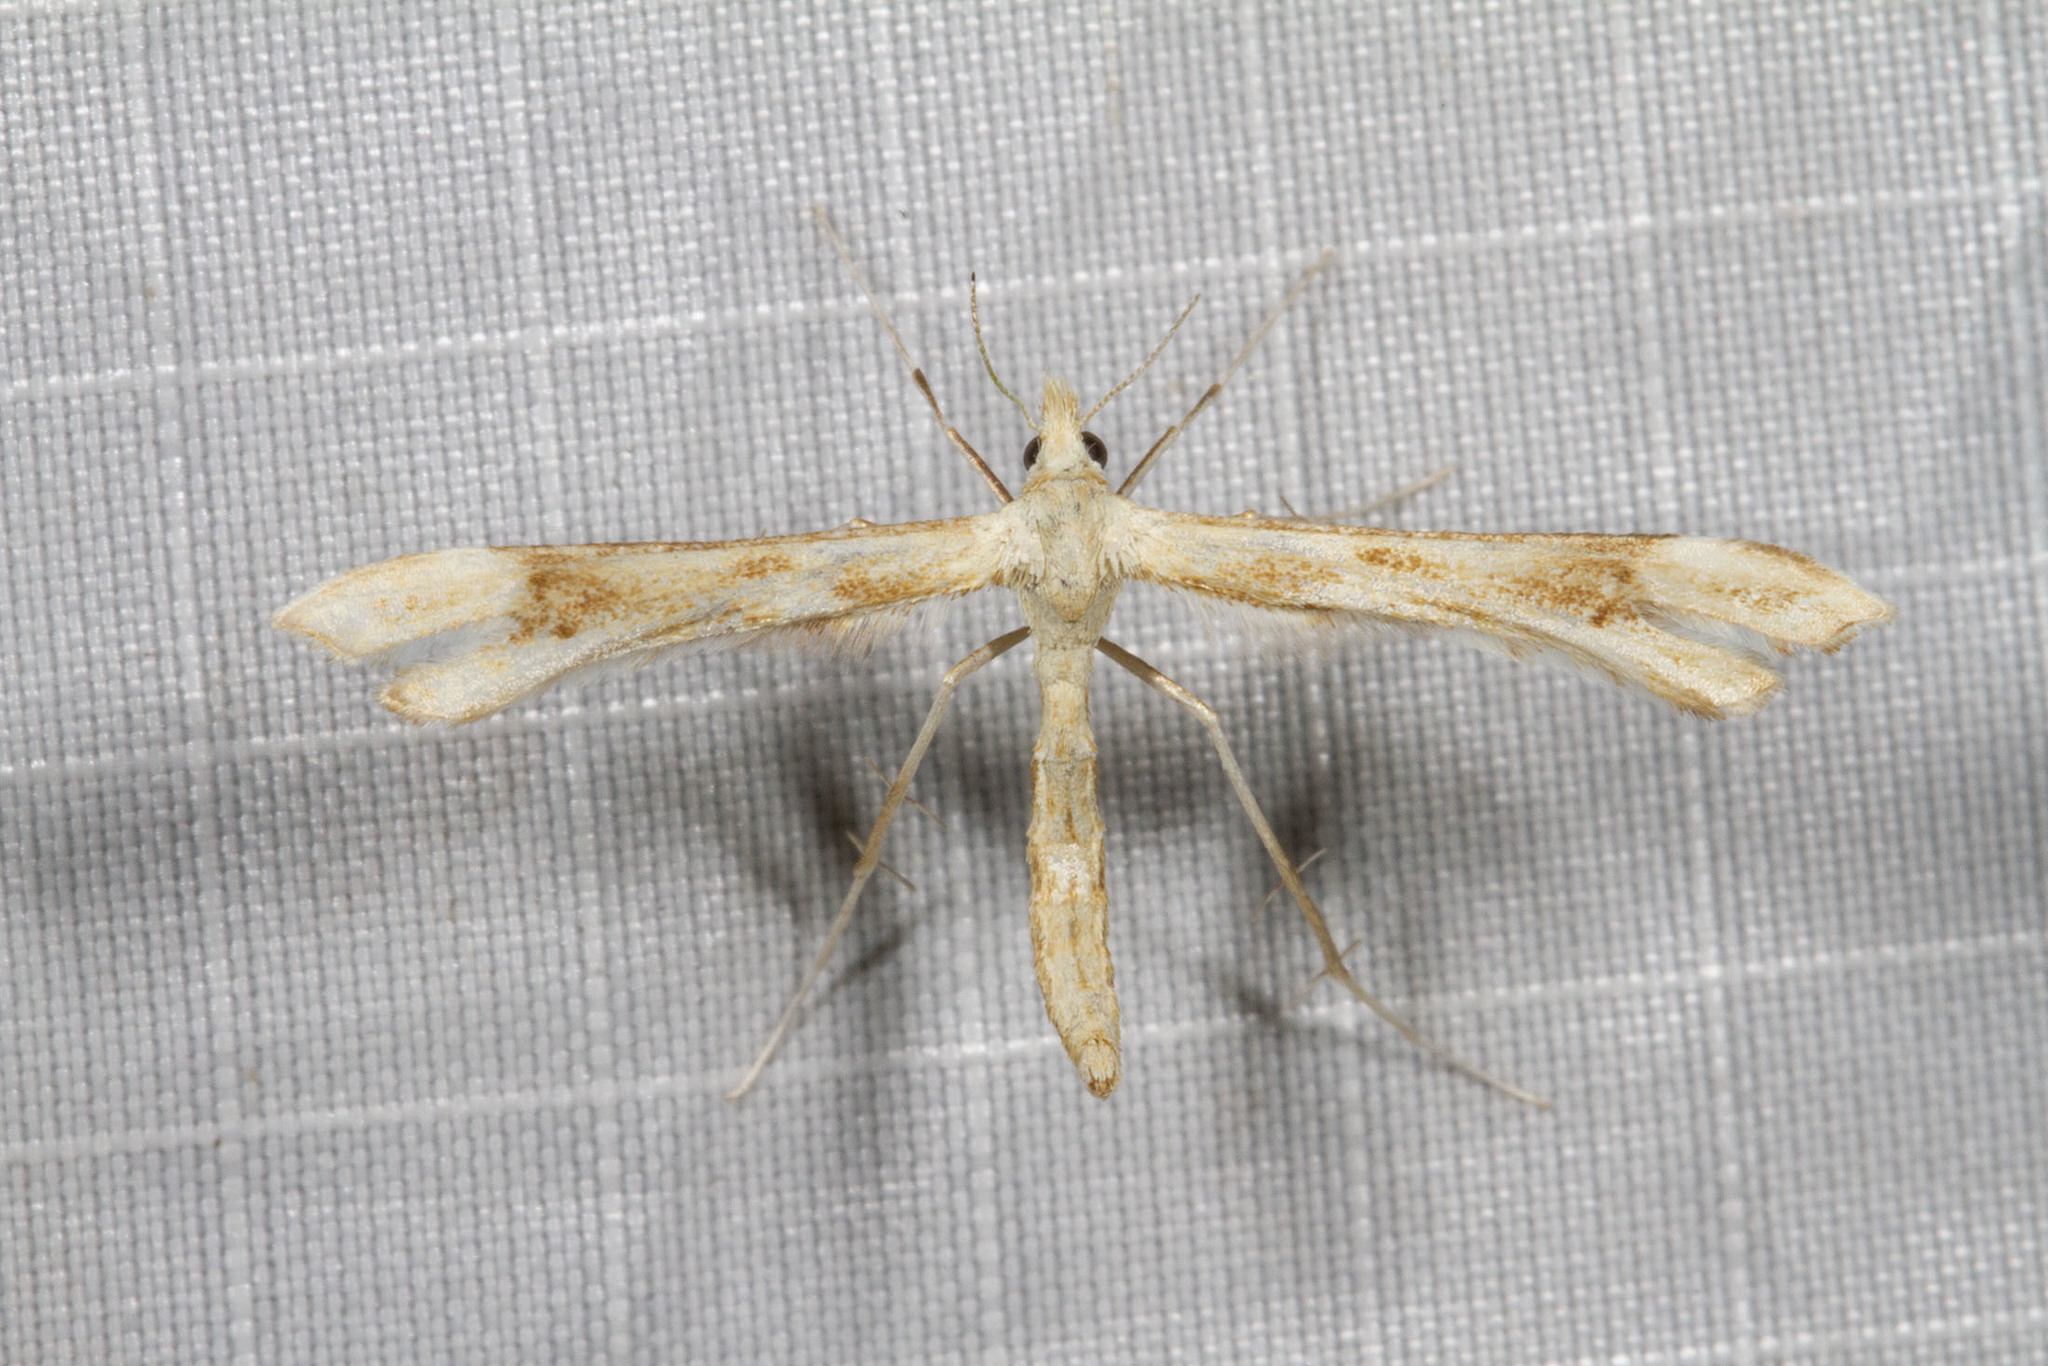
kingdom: Animalia
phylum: Arthropoda
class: Insecta
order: Lepidoptera
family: Pterophoridae
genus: Gillmeria
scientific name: Gillmeria pallidactyla
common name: Yarrow plume
